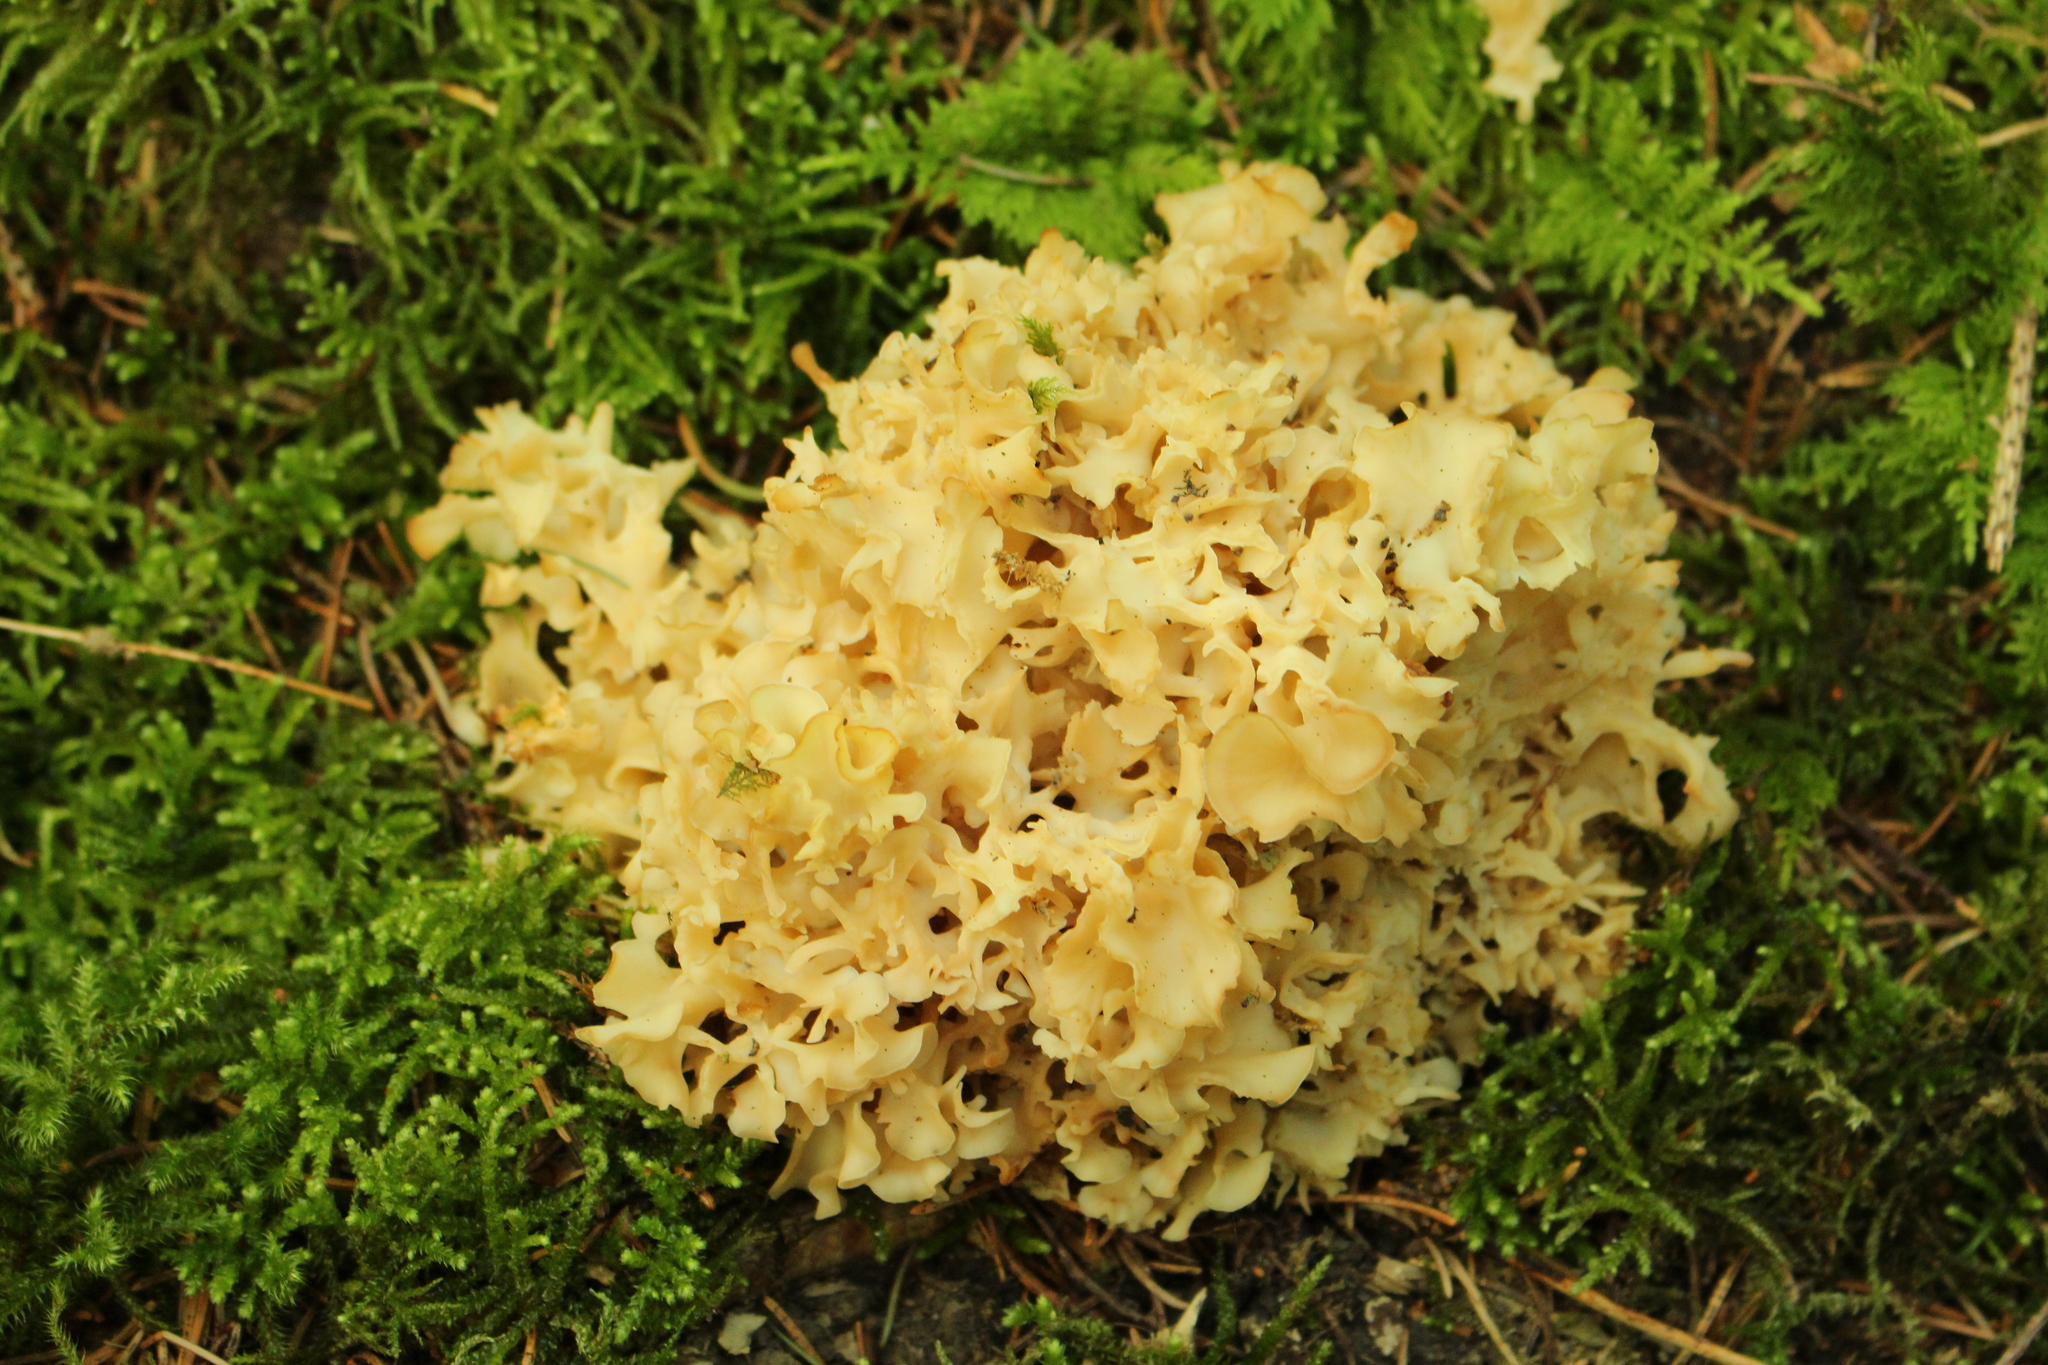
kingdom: Fungi
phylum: Basidiomycota
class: Agaricomycetes
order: Polyporales
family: Sparassidaceae
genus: Sparassis
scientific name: Sparassis crispa
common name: Brain fungus
